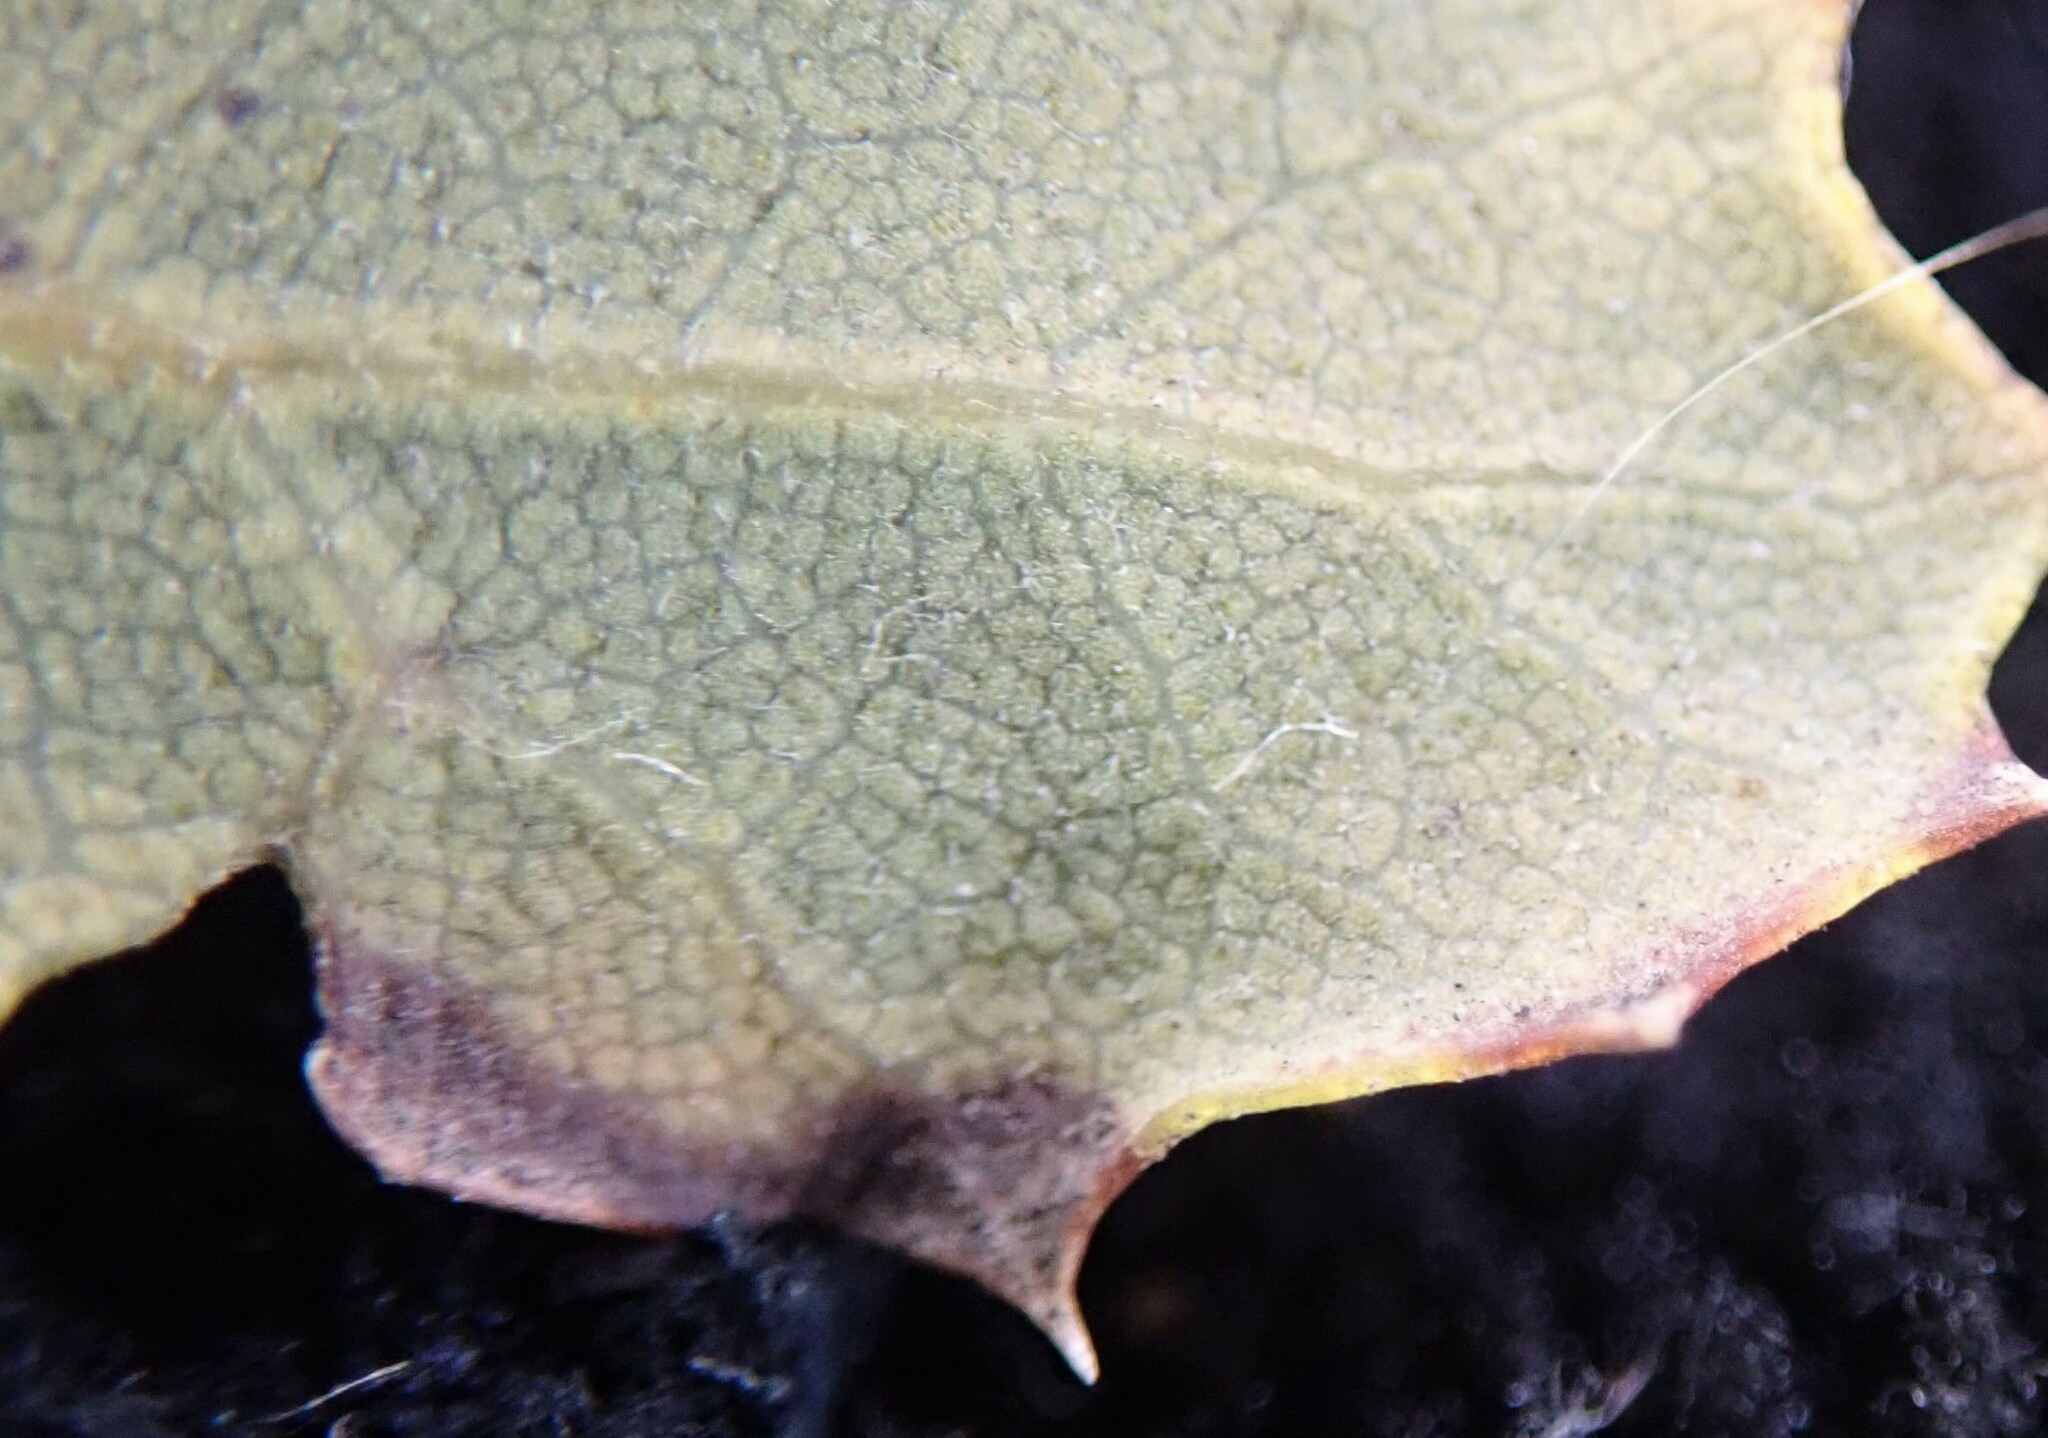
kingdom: Plantae
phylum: Tracheophyta
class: Magnoliopsida
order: Fagales
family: Fagaceae
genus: Quercus
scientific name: Quercus dumosa
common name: Coastal sage scrub oak
